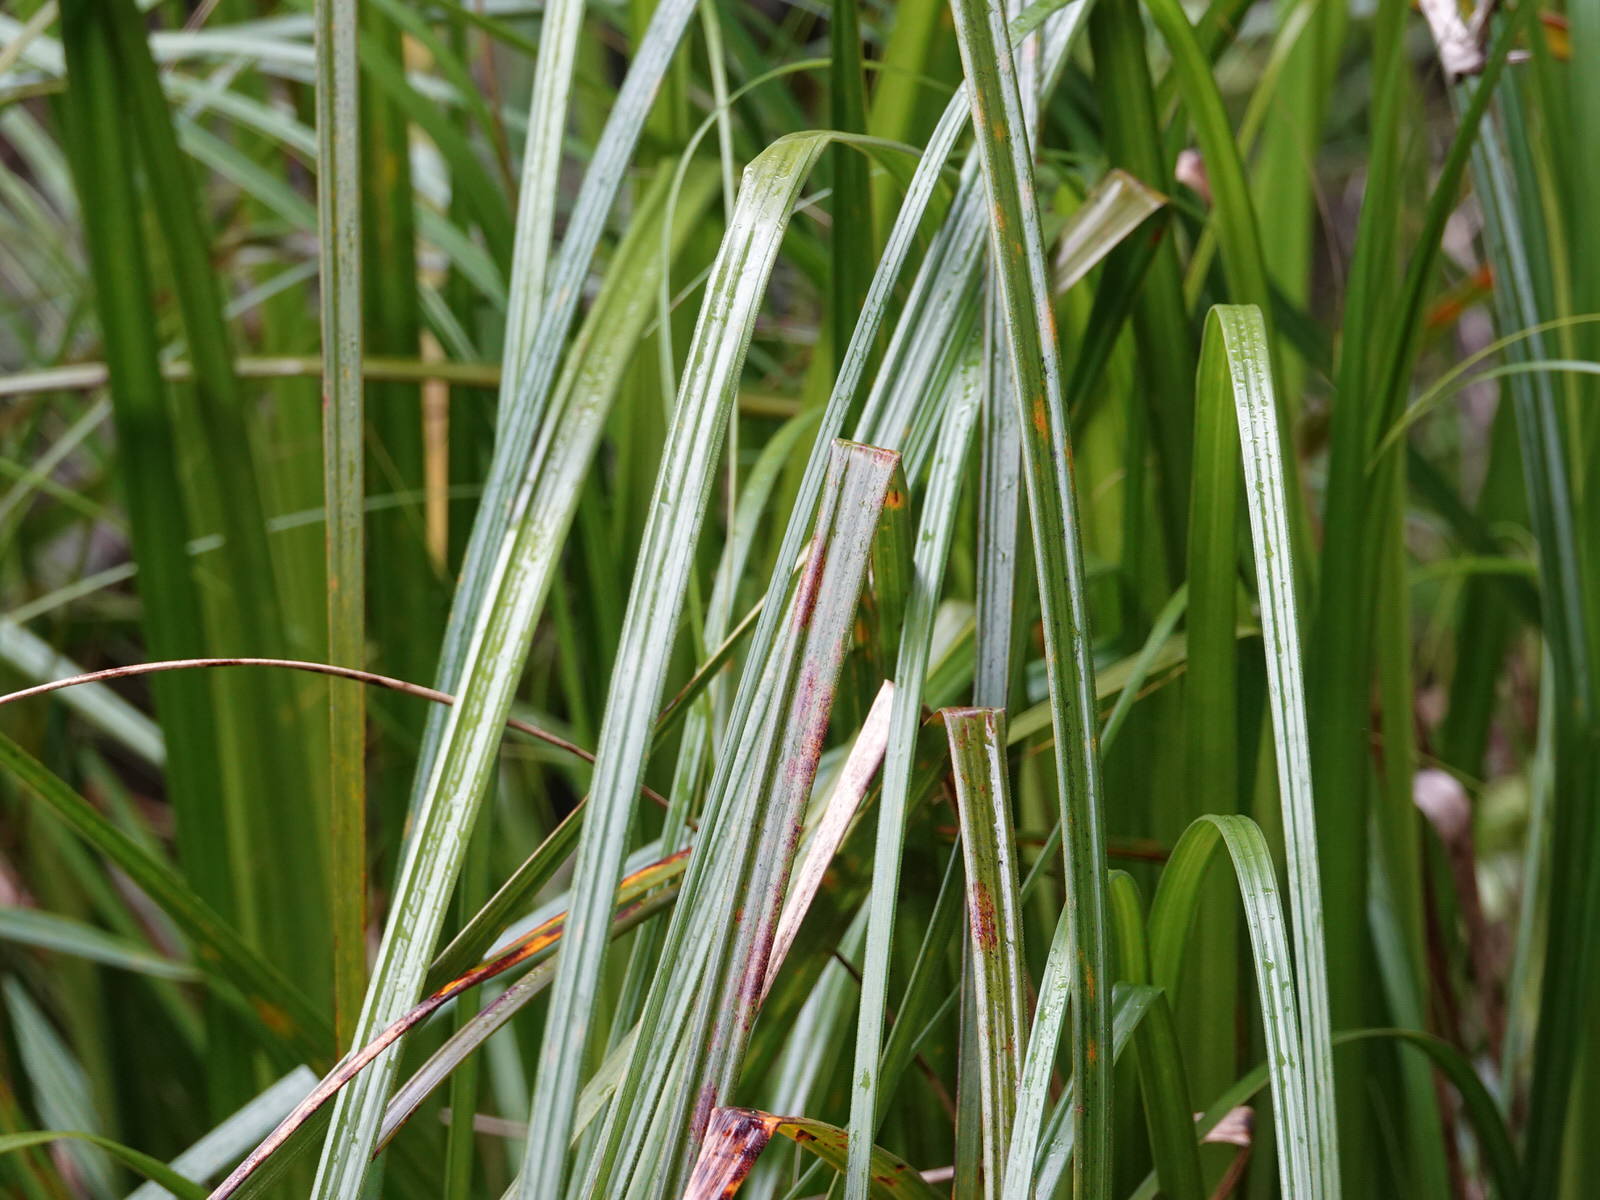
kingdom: Plantae
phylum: Tracheophyta
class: Liliopsida
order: Poales
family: Cyperaceae
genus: Gahnia
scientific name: Gahnia xanthocarpa
